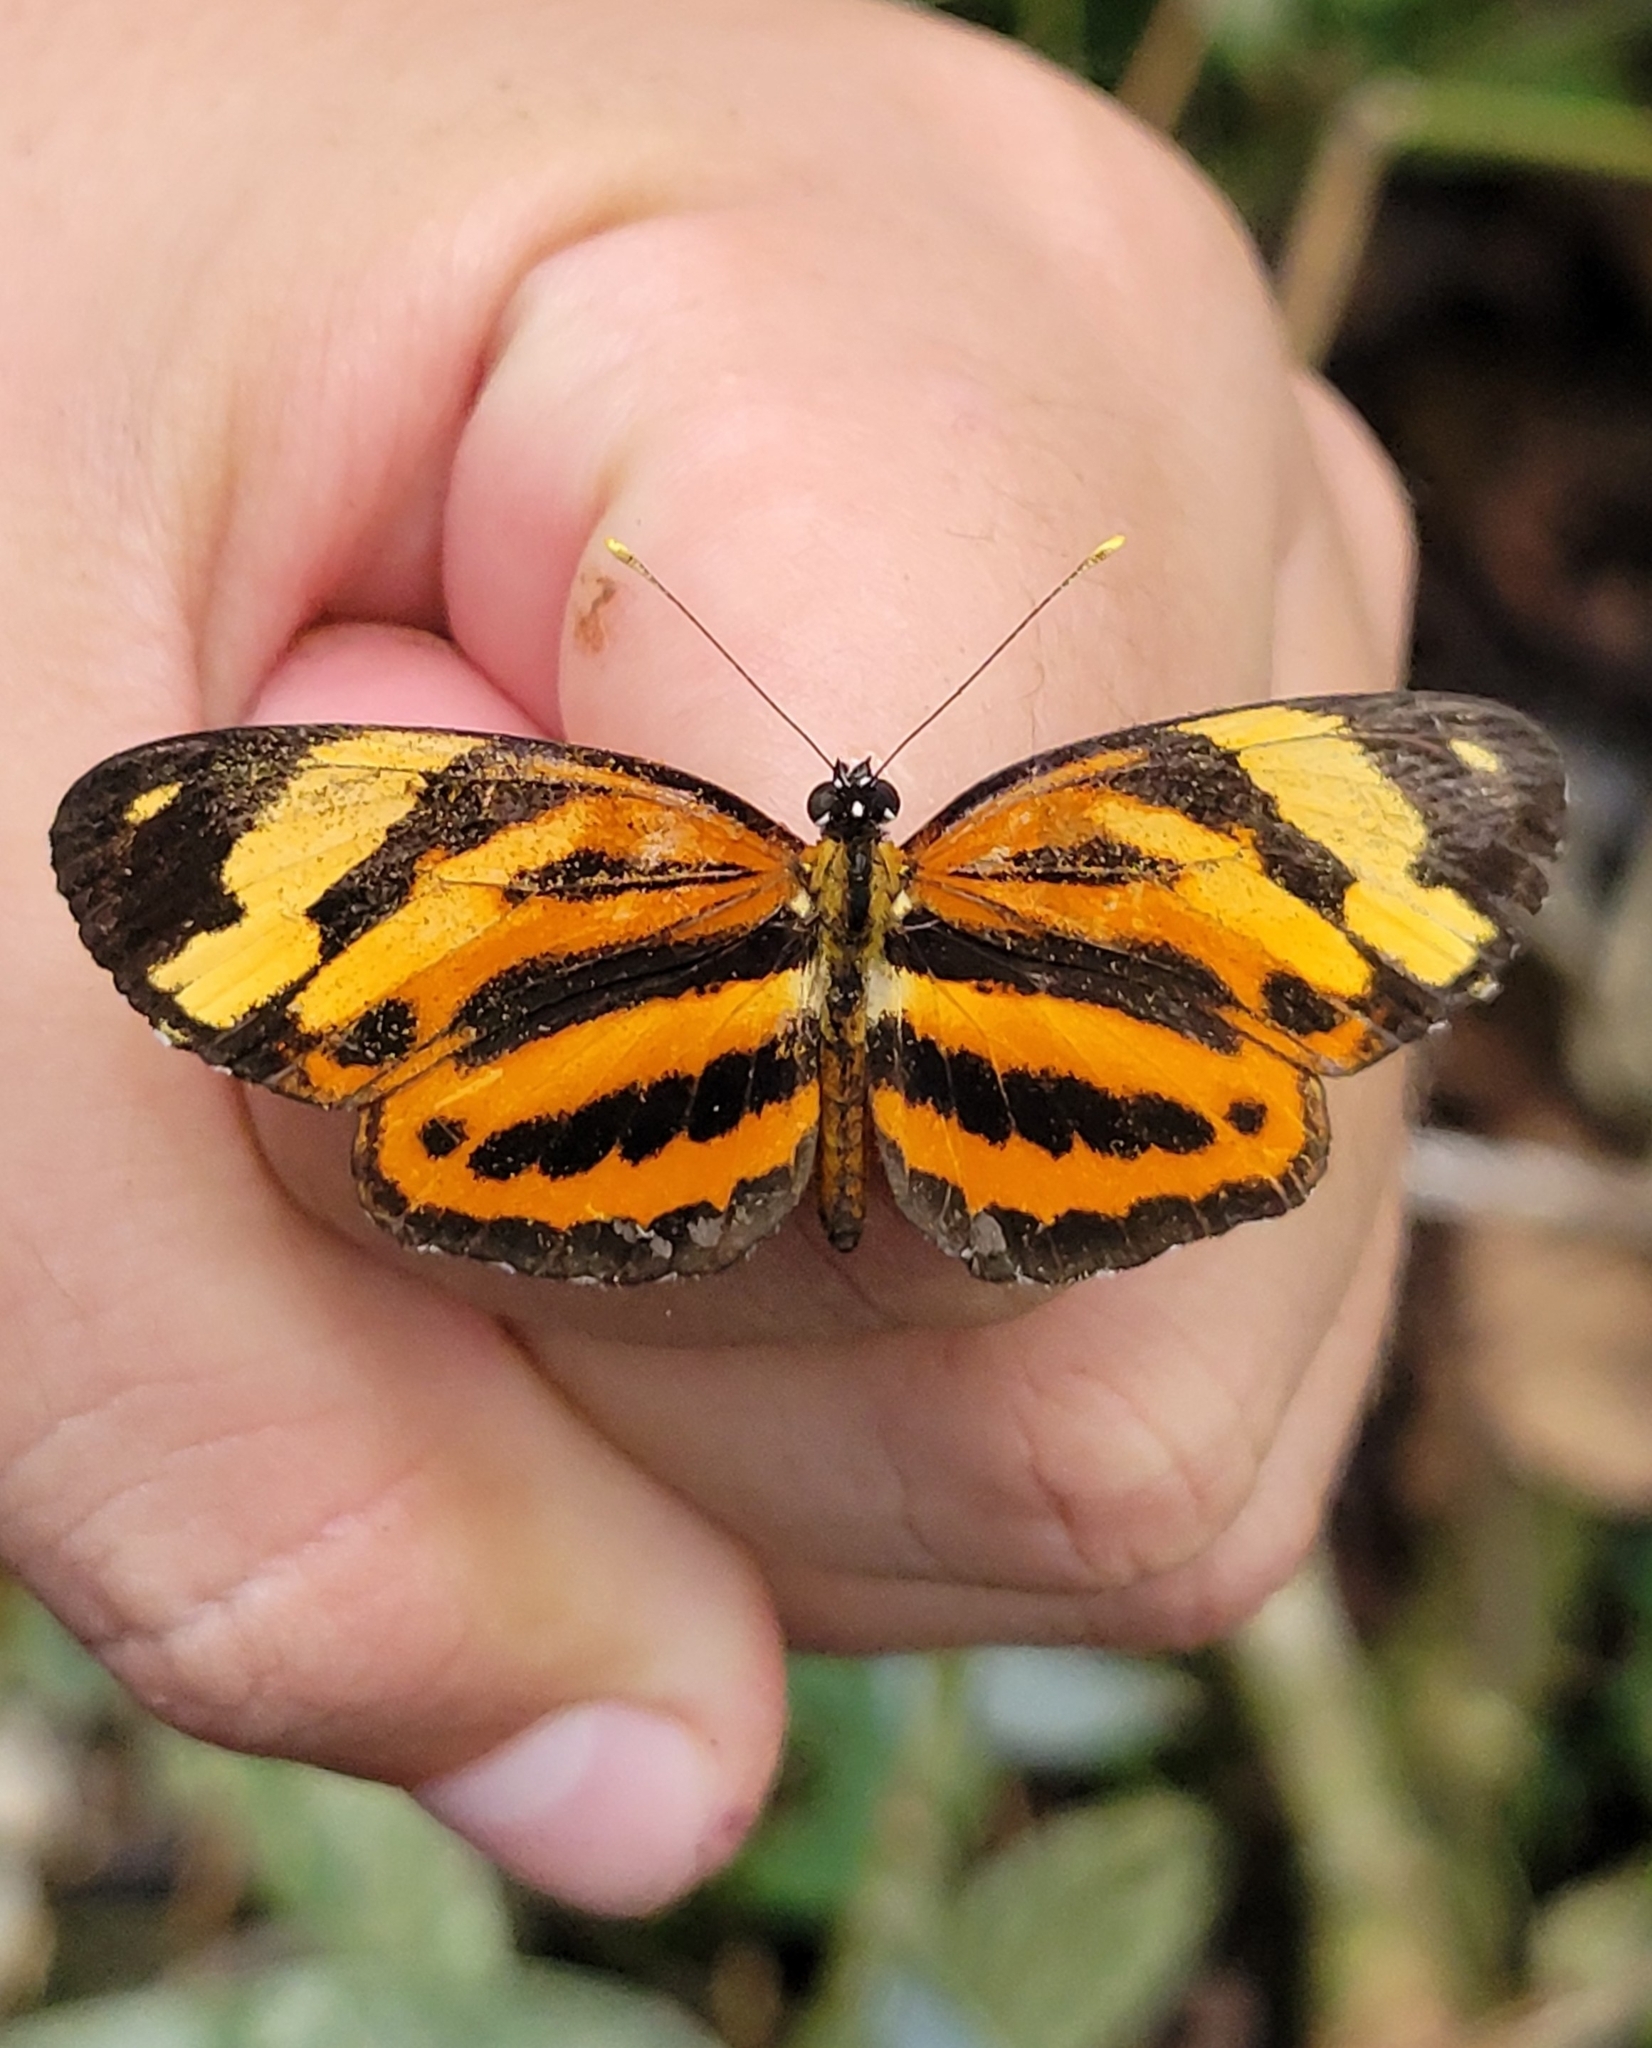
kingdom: Animalia
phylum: Arthropoda
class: Insecta
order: Lepidoptera
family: Nymphalidae
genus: Eresia
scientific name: Eresia eunice
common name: Tiger crescent
